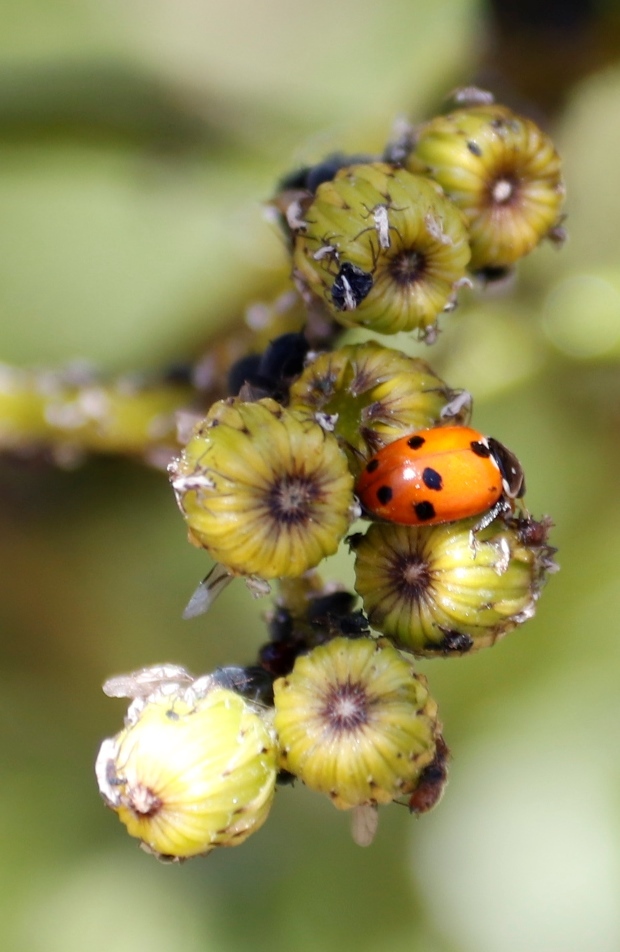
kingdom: Animalia
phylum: Arthropoda
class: Insecta
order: Coleoptera
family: Coccinellidae
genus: Hippodamia
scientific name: Hippodamia variegata
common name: Ladybird beetle
